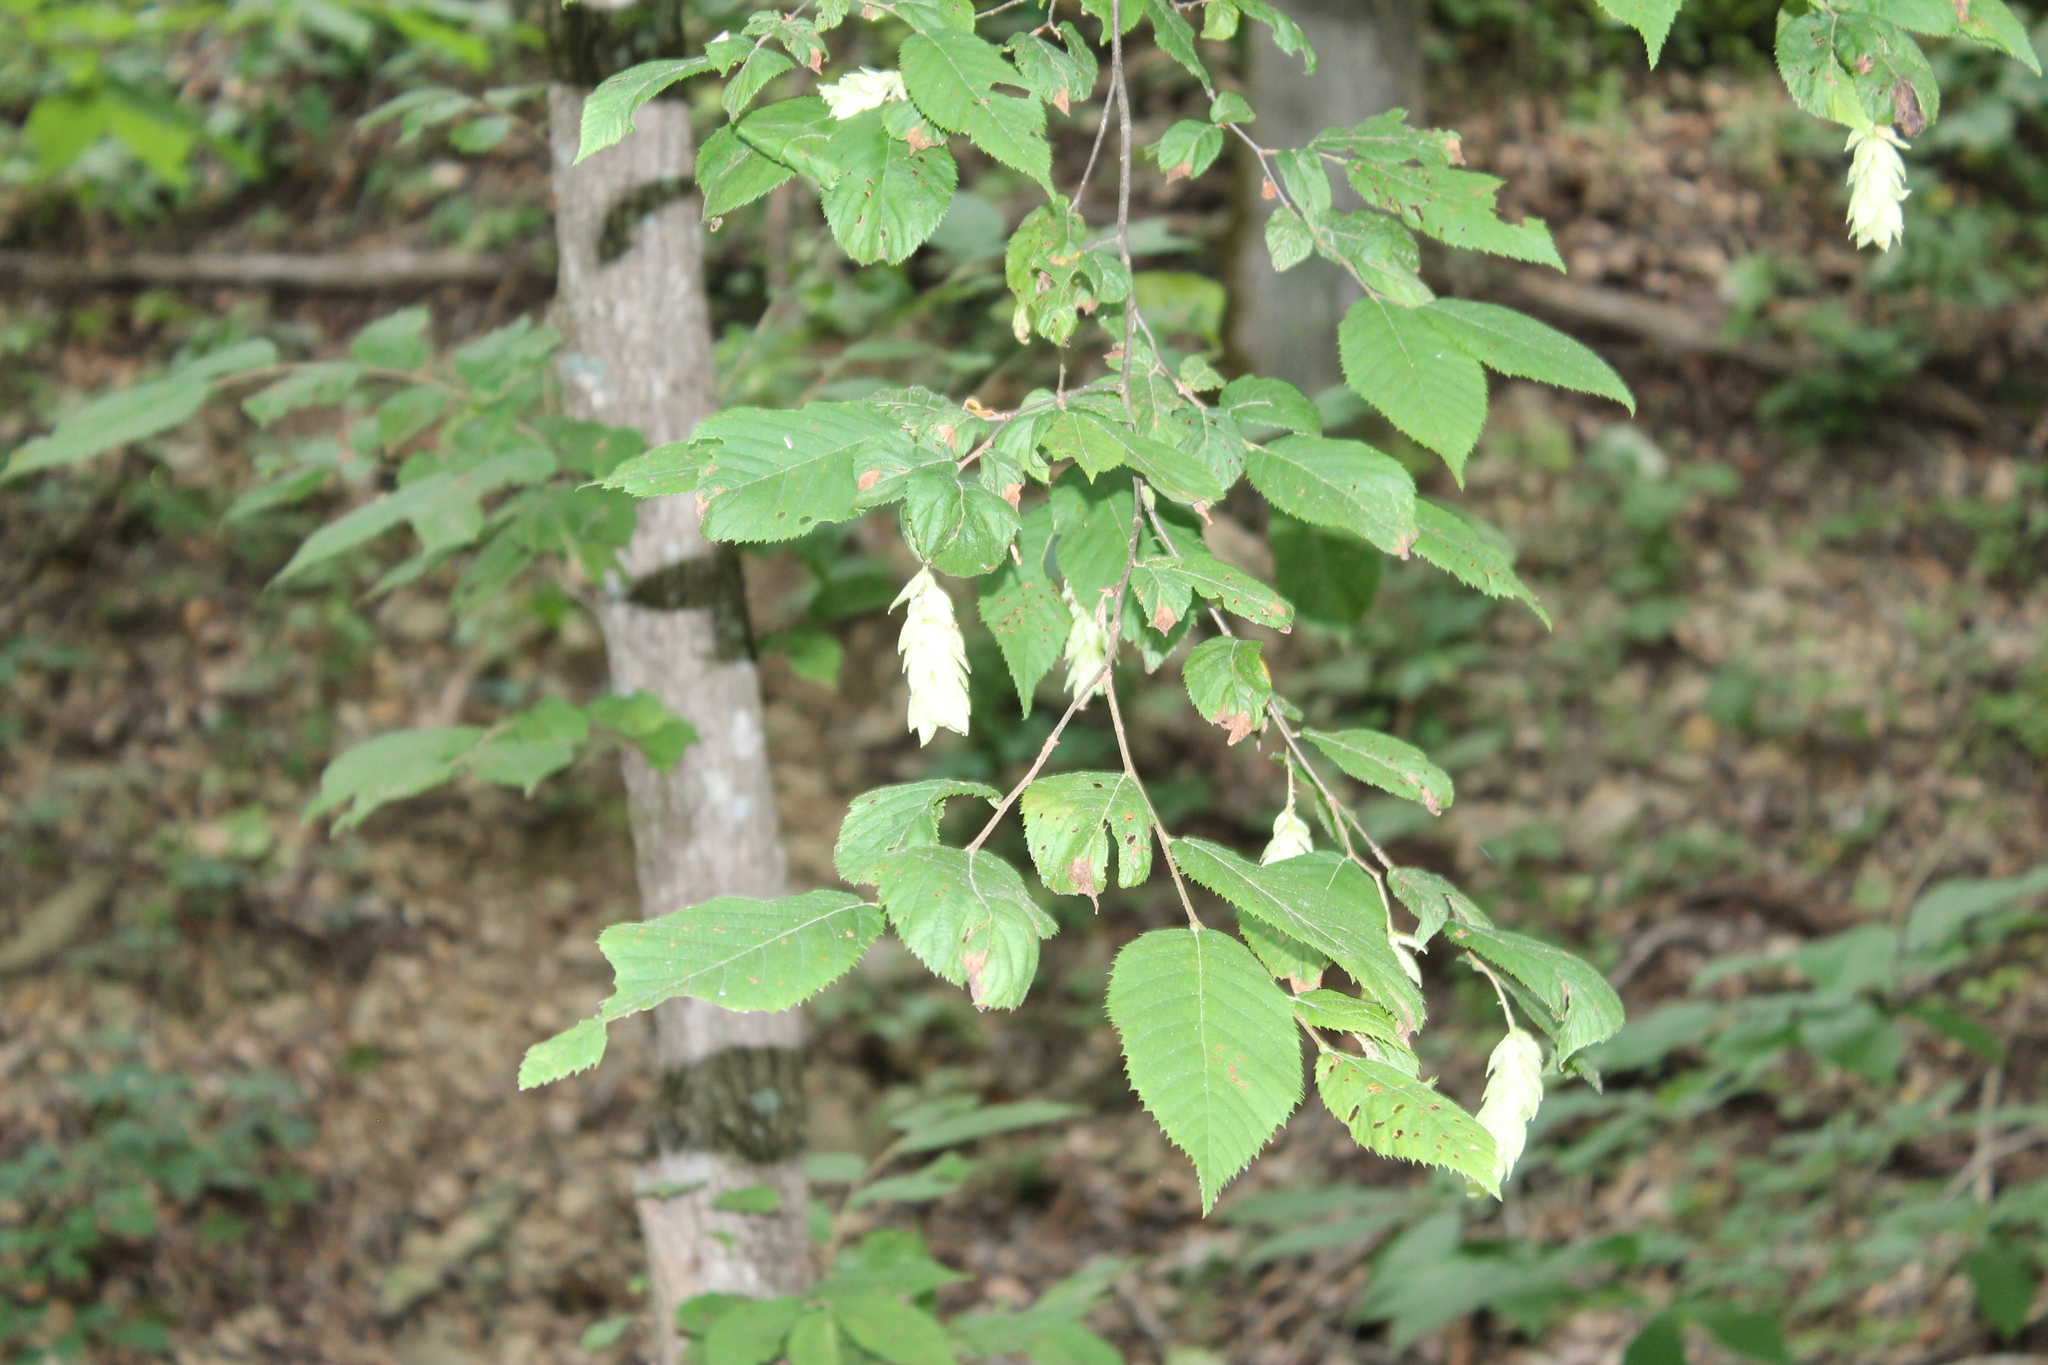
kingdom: Plantae
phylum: Tracheophyta
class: Magnoliopsida
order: Fagales
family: Betulaceae
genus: Ostrya
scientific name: Ostrya virginiana
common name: Ironwood
